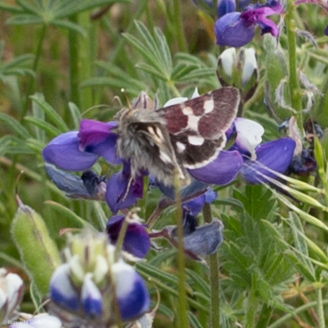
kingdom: Animalia
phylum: Arthropoda
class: Insecta
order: Lepidoptera
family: Noctuidae
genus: Schinia
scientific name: Schinia suetus
